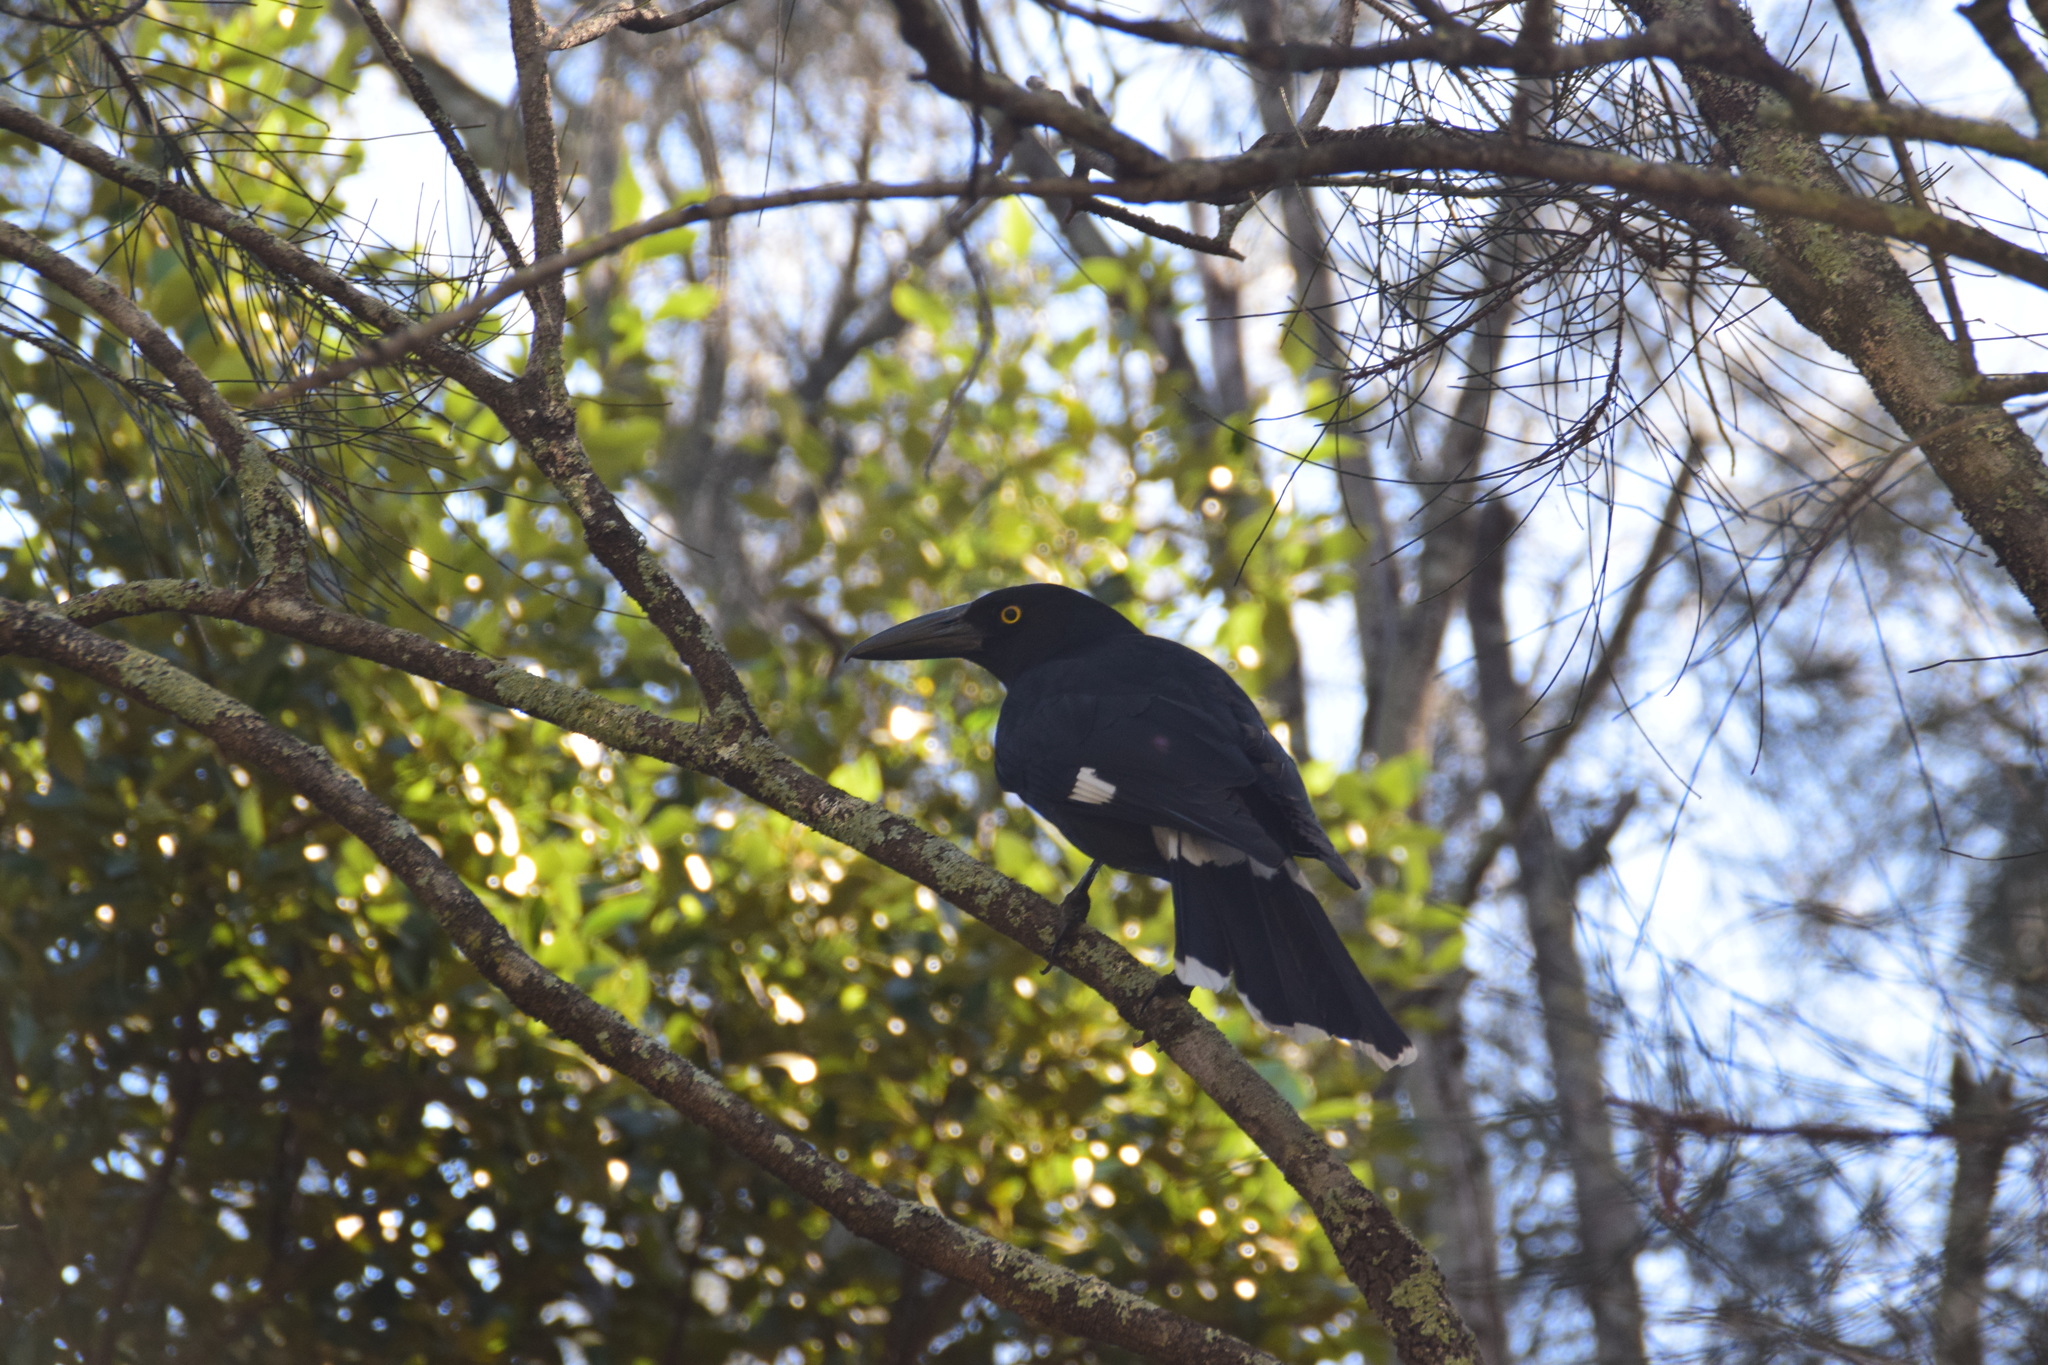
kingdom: Animalia
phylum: Chordata
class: Aves
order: Passeriformes
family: Cracticidae
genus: Strepera
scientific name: Strepera graculina
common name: Pied currawong
